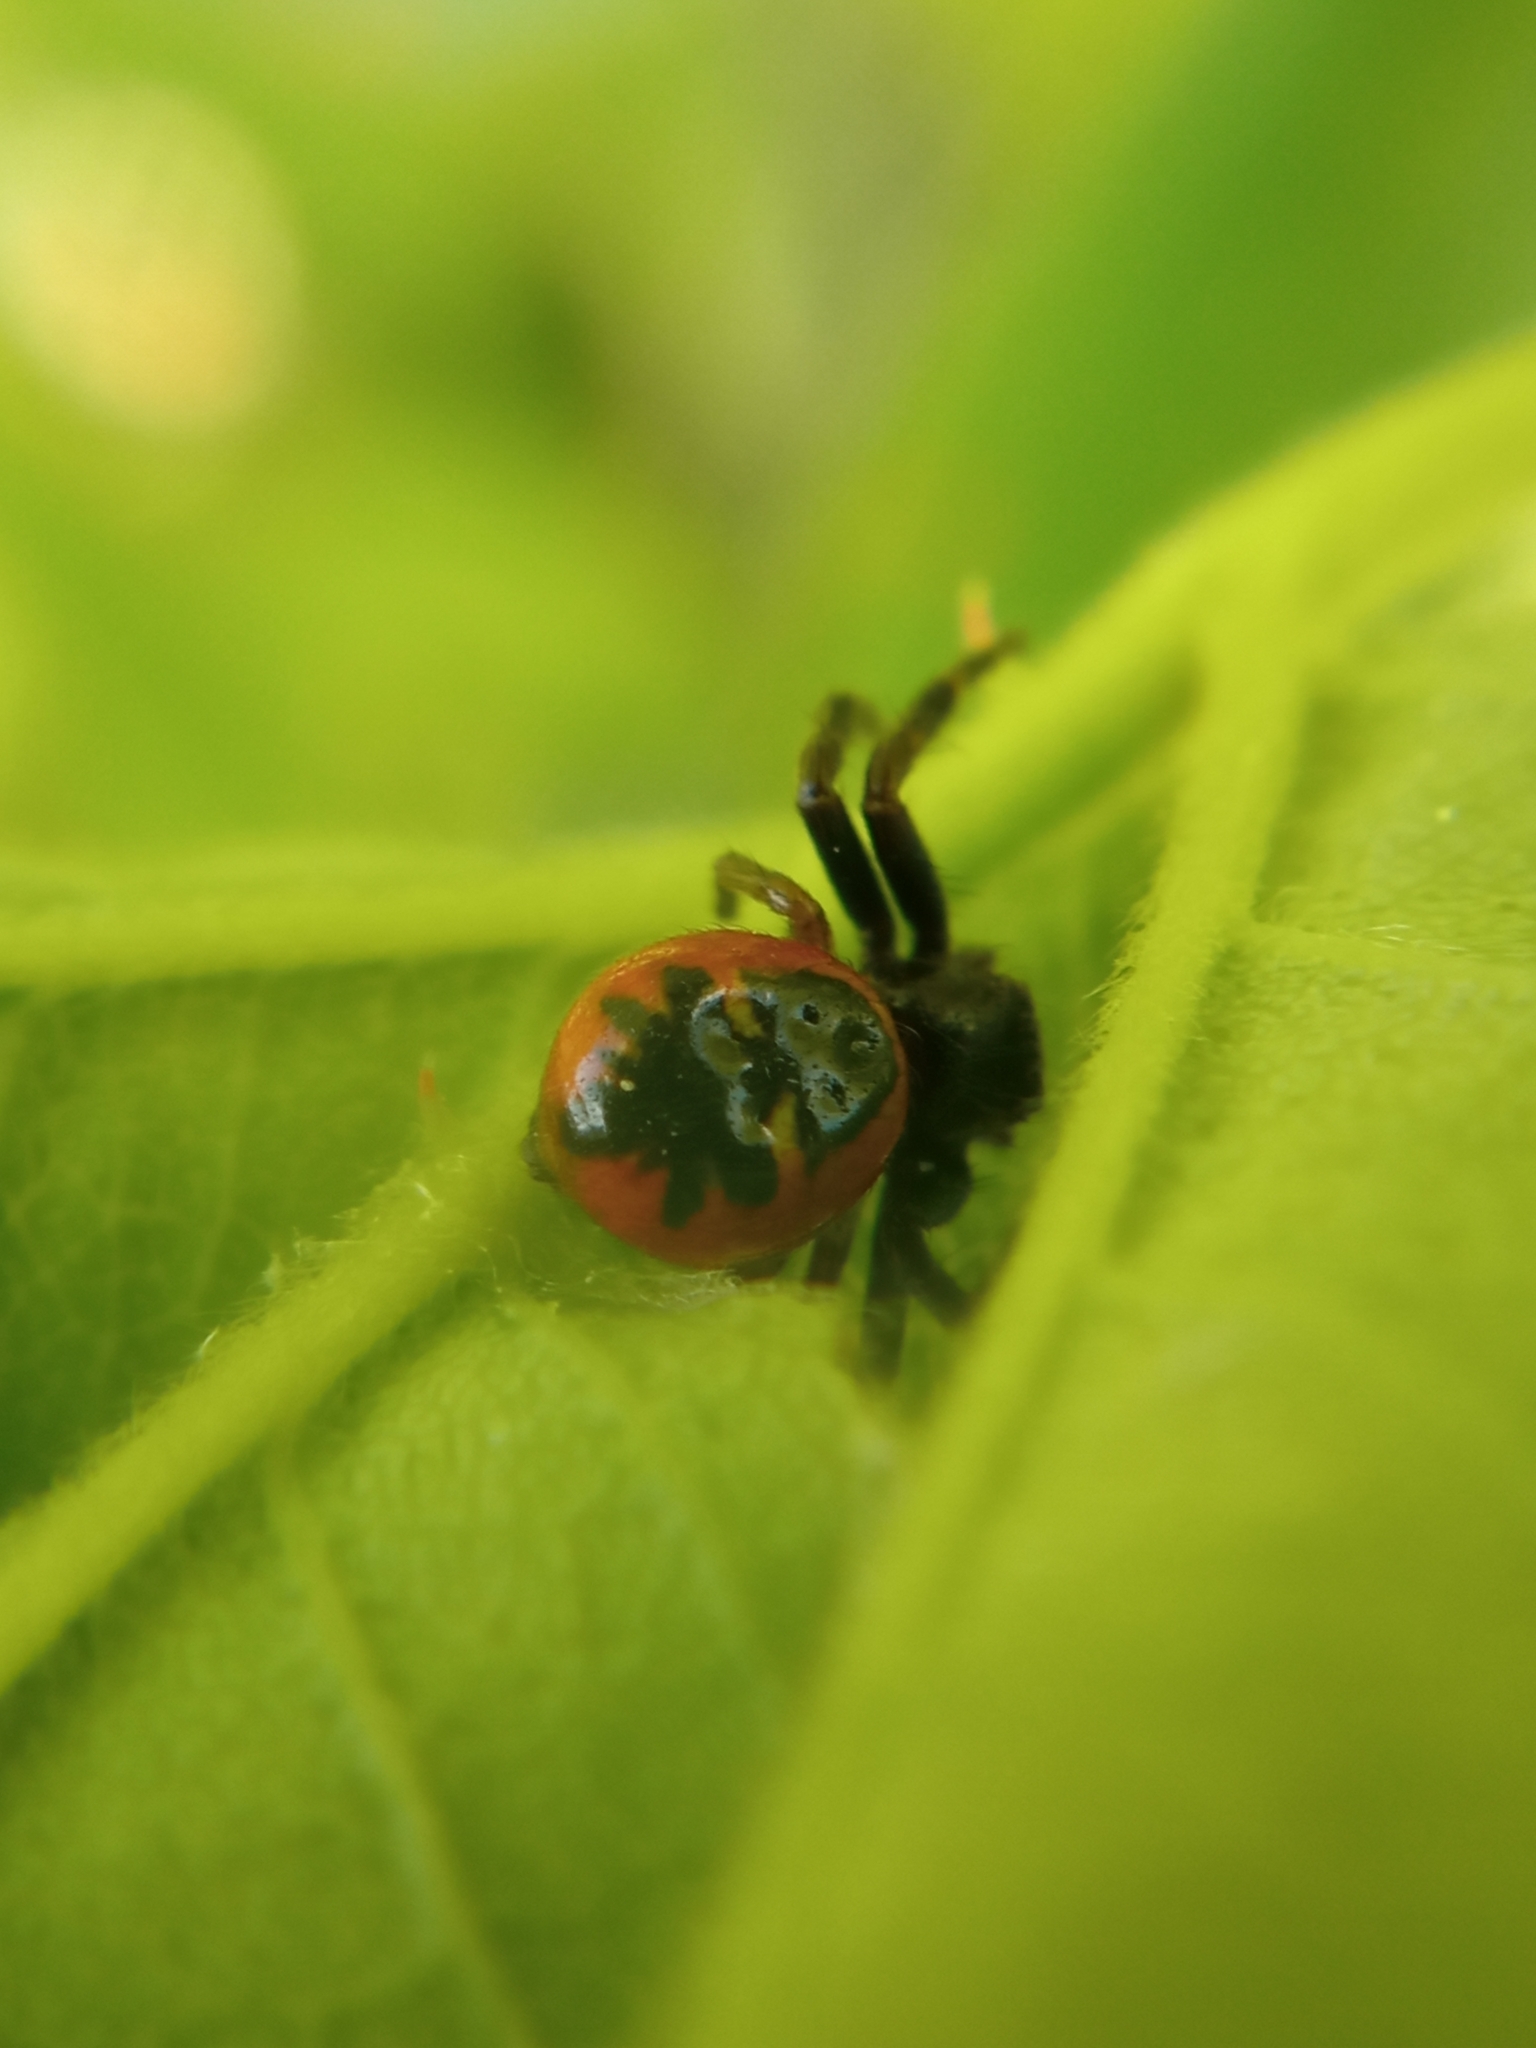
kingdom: Animalia
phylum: Arthropoda
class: Arachnida
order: Araneae
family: Thomisidae
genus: Synema
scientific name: Synema globosum
